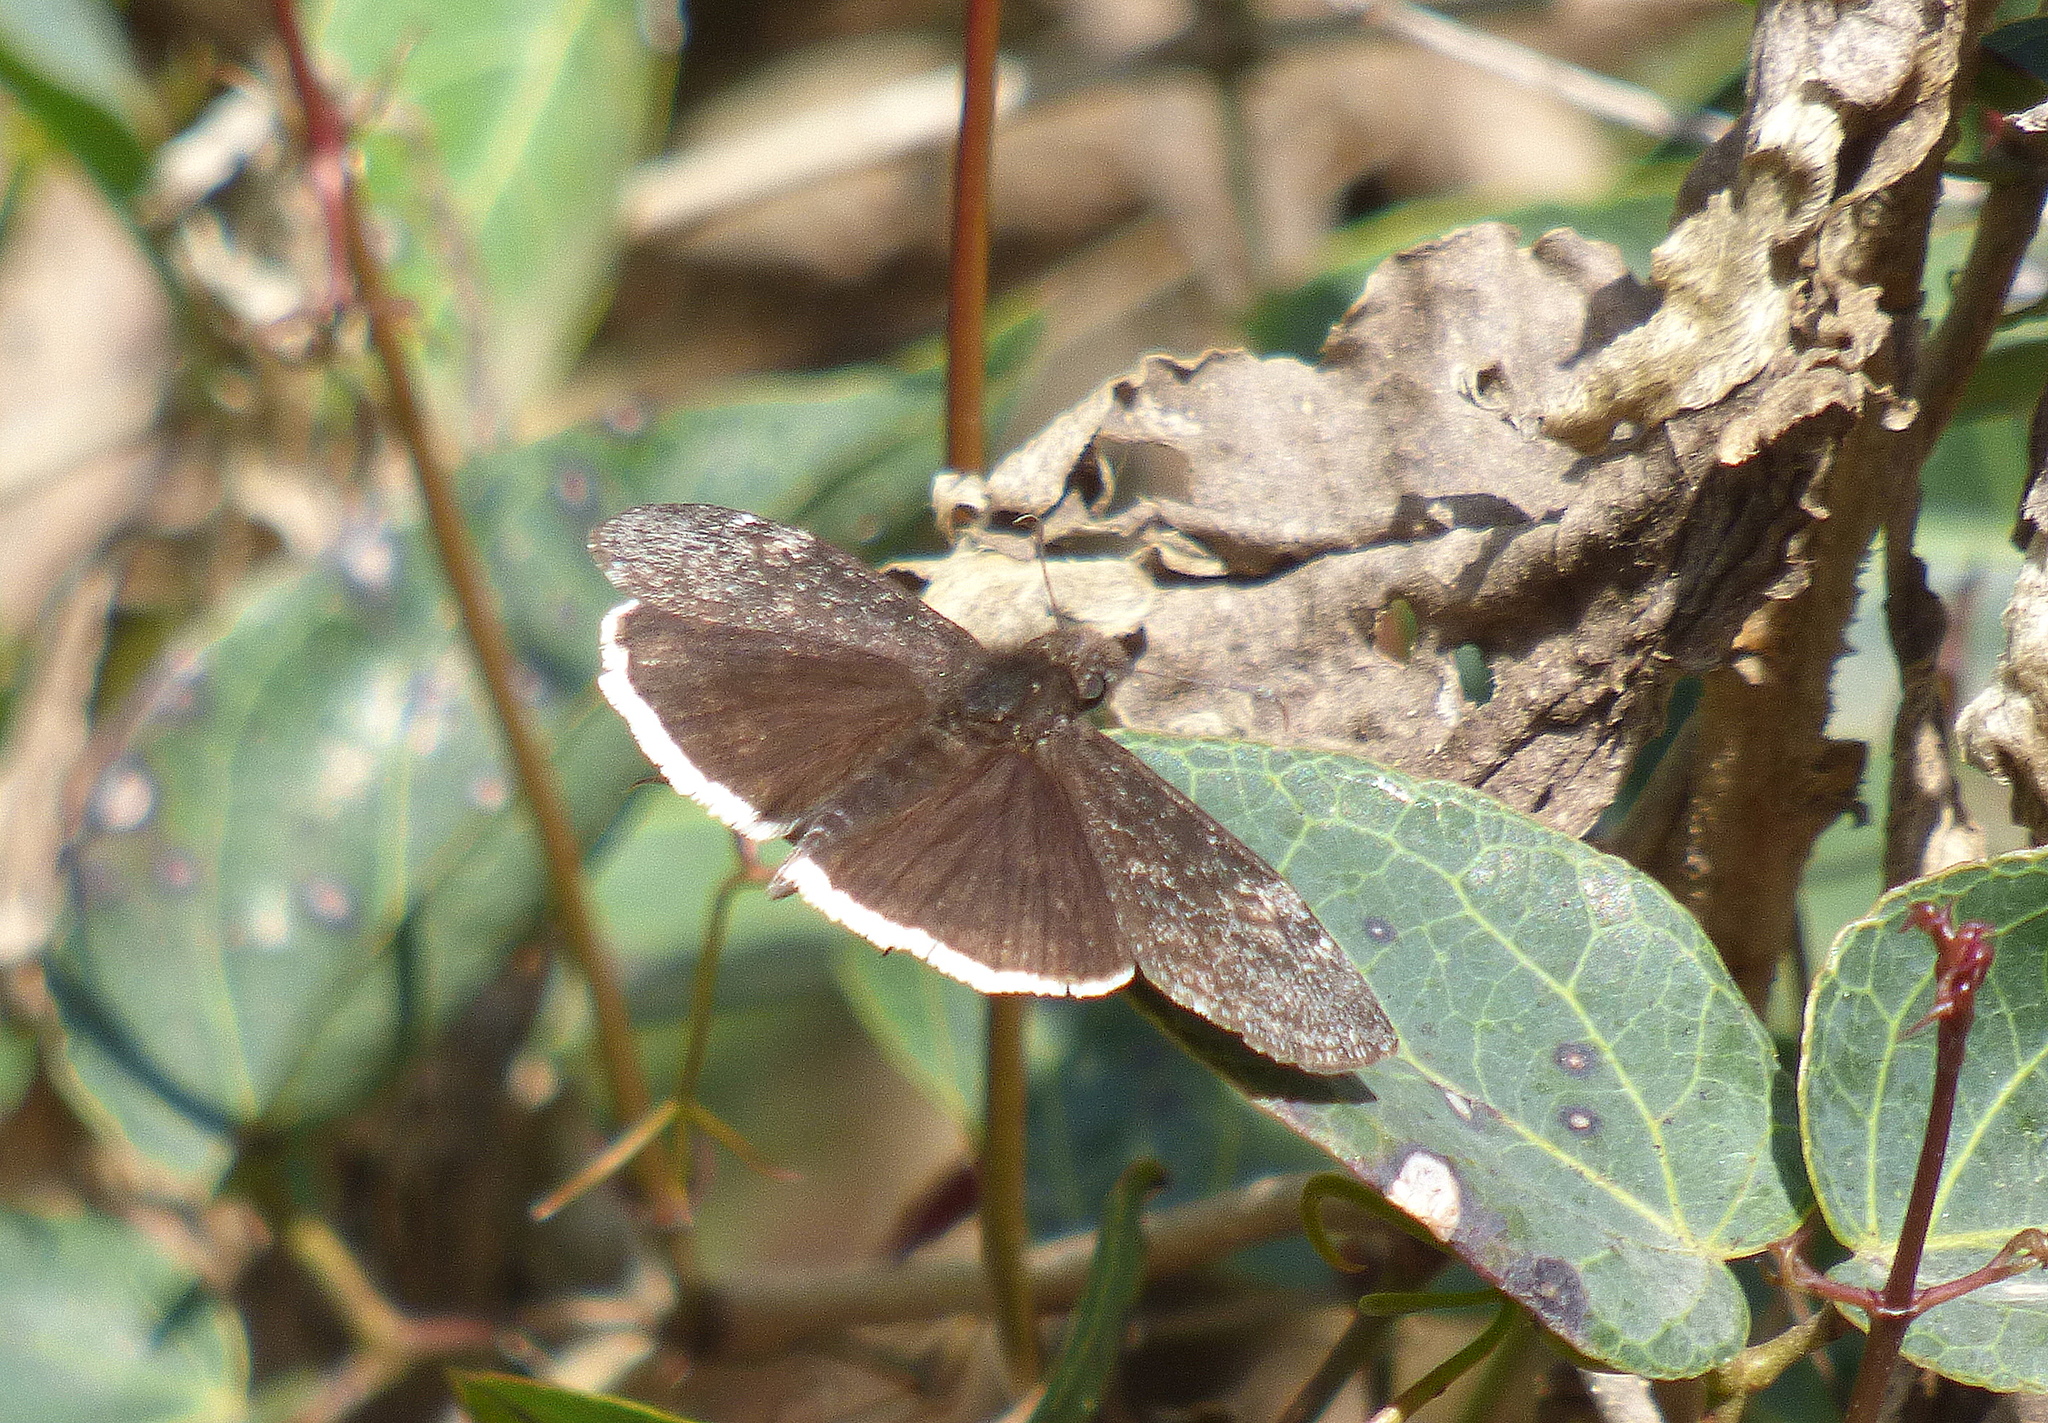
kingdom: Animalia
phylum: Arthropoda
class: Insecta
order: Lepidoptera
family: Hesperiidae
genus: Erynnis
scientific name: Erynnis funeralis
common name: Funereal duskywing
